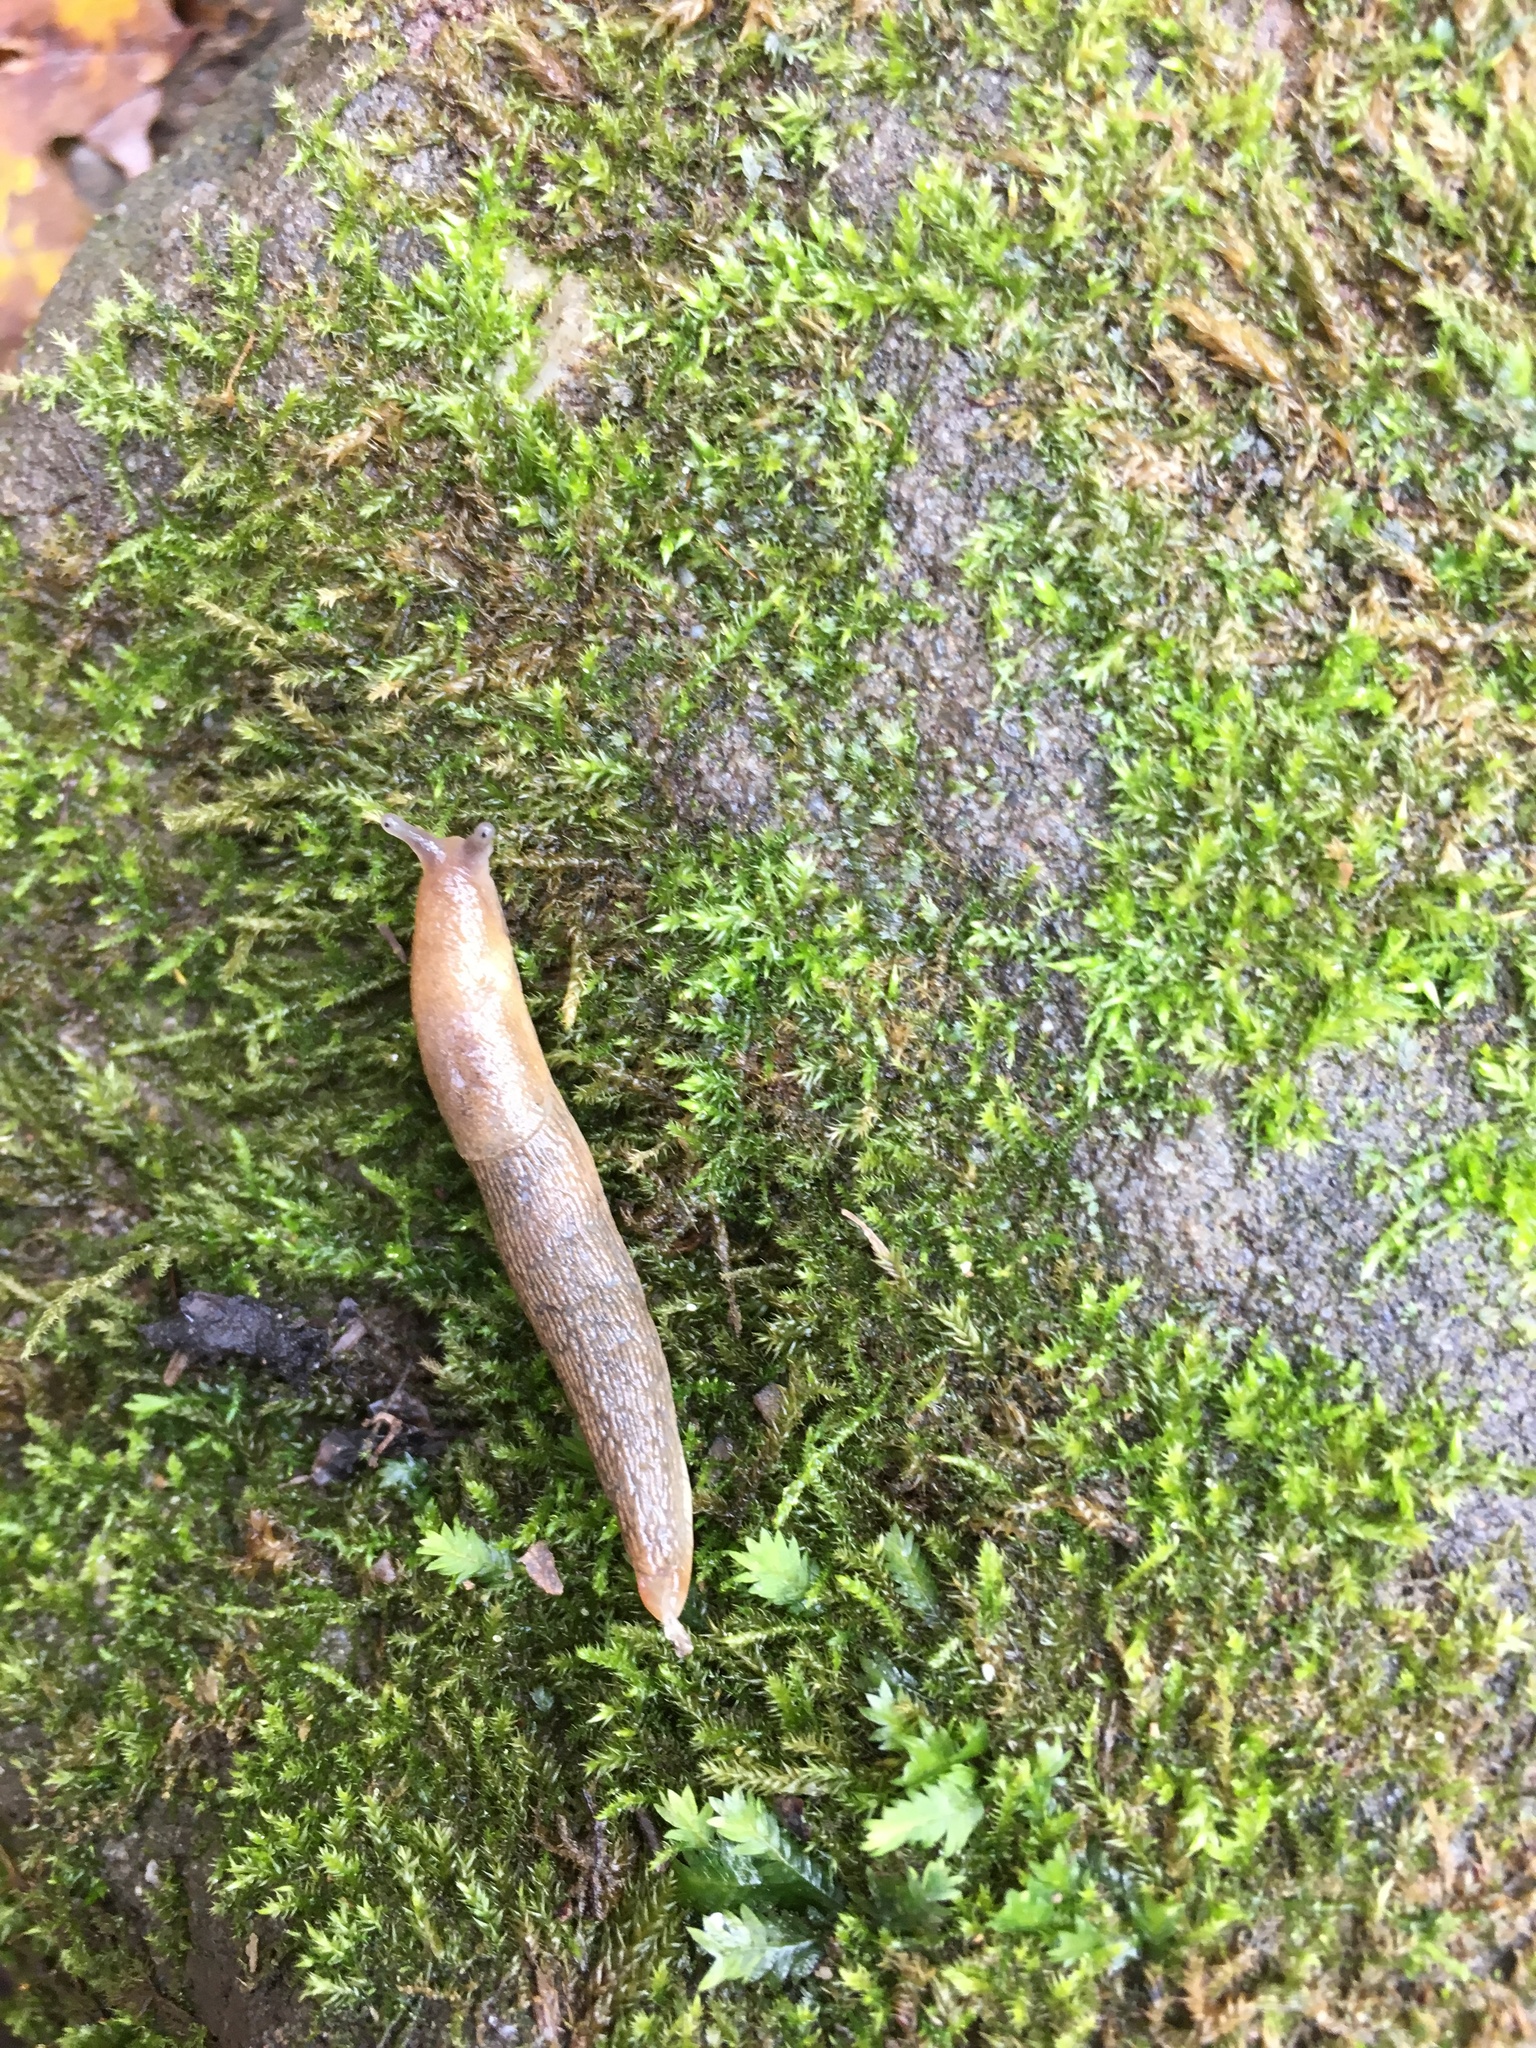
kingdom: Animalia
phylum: Mollusca
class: Gastropoda
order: Stylommatophora
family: Arionidae
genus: Arion
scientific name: Arion subfuscus
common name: Dusky arion
